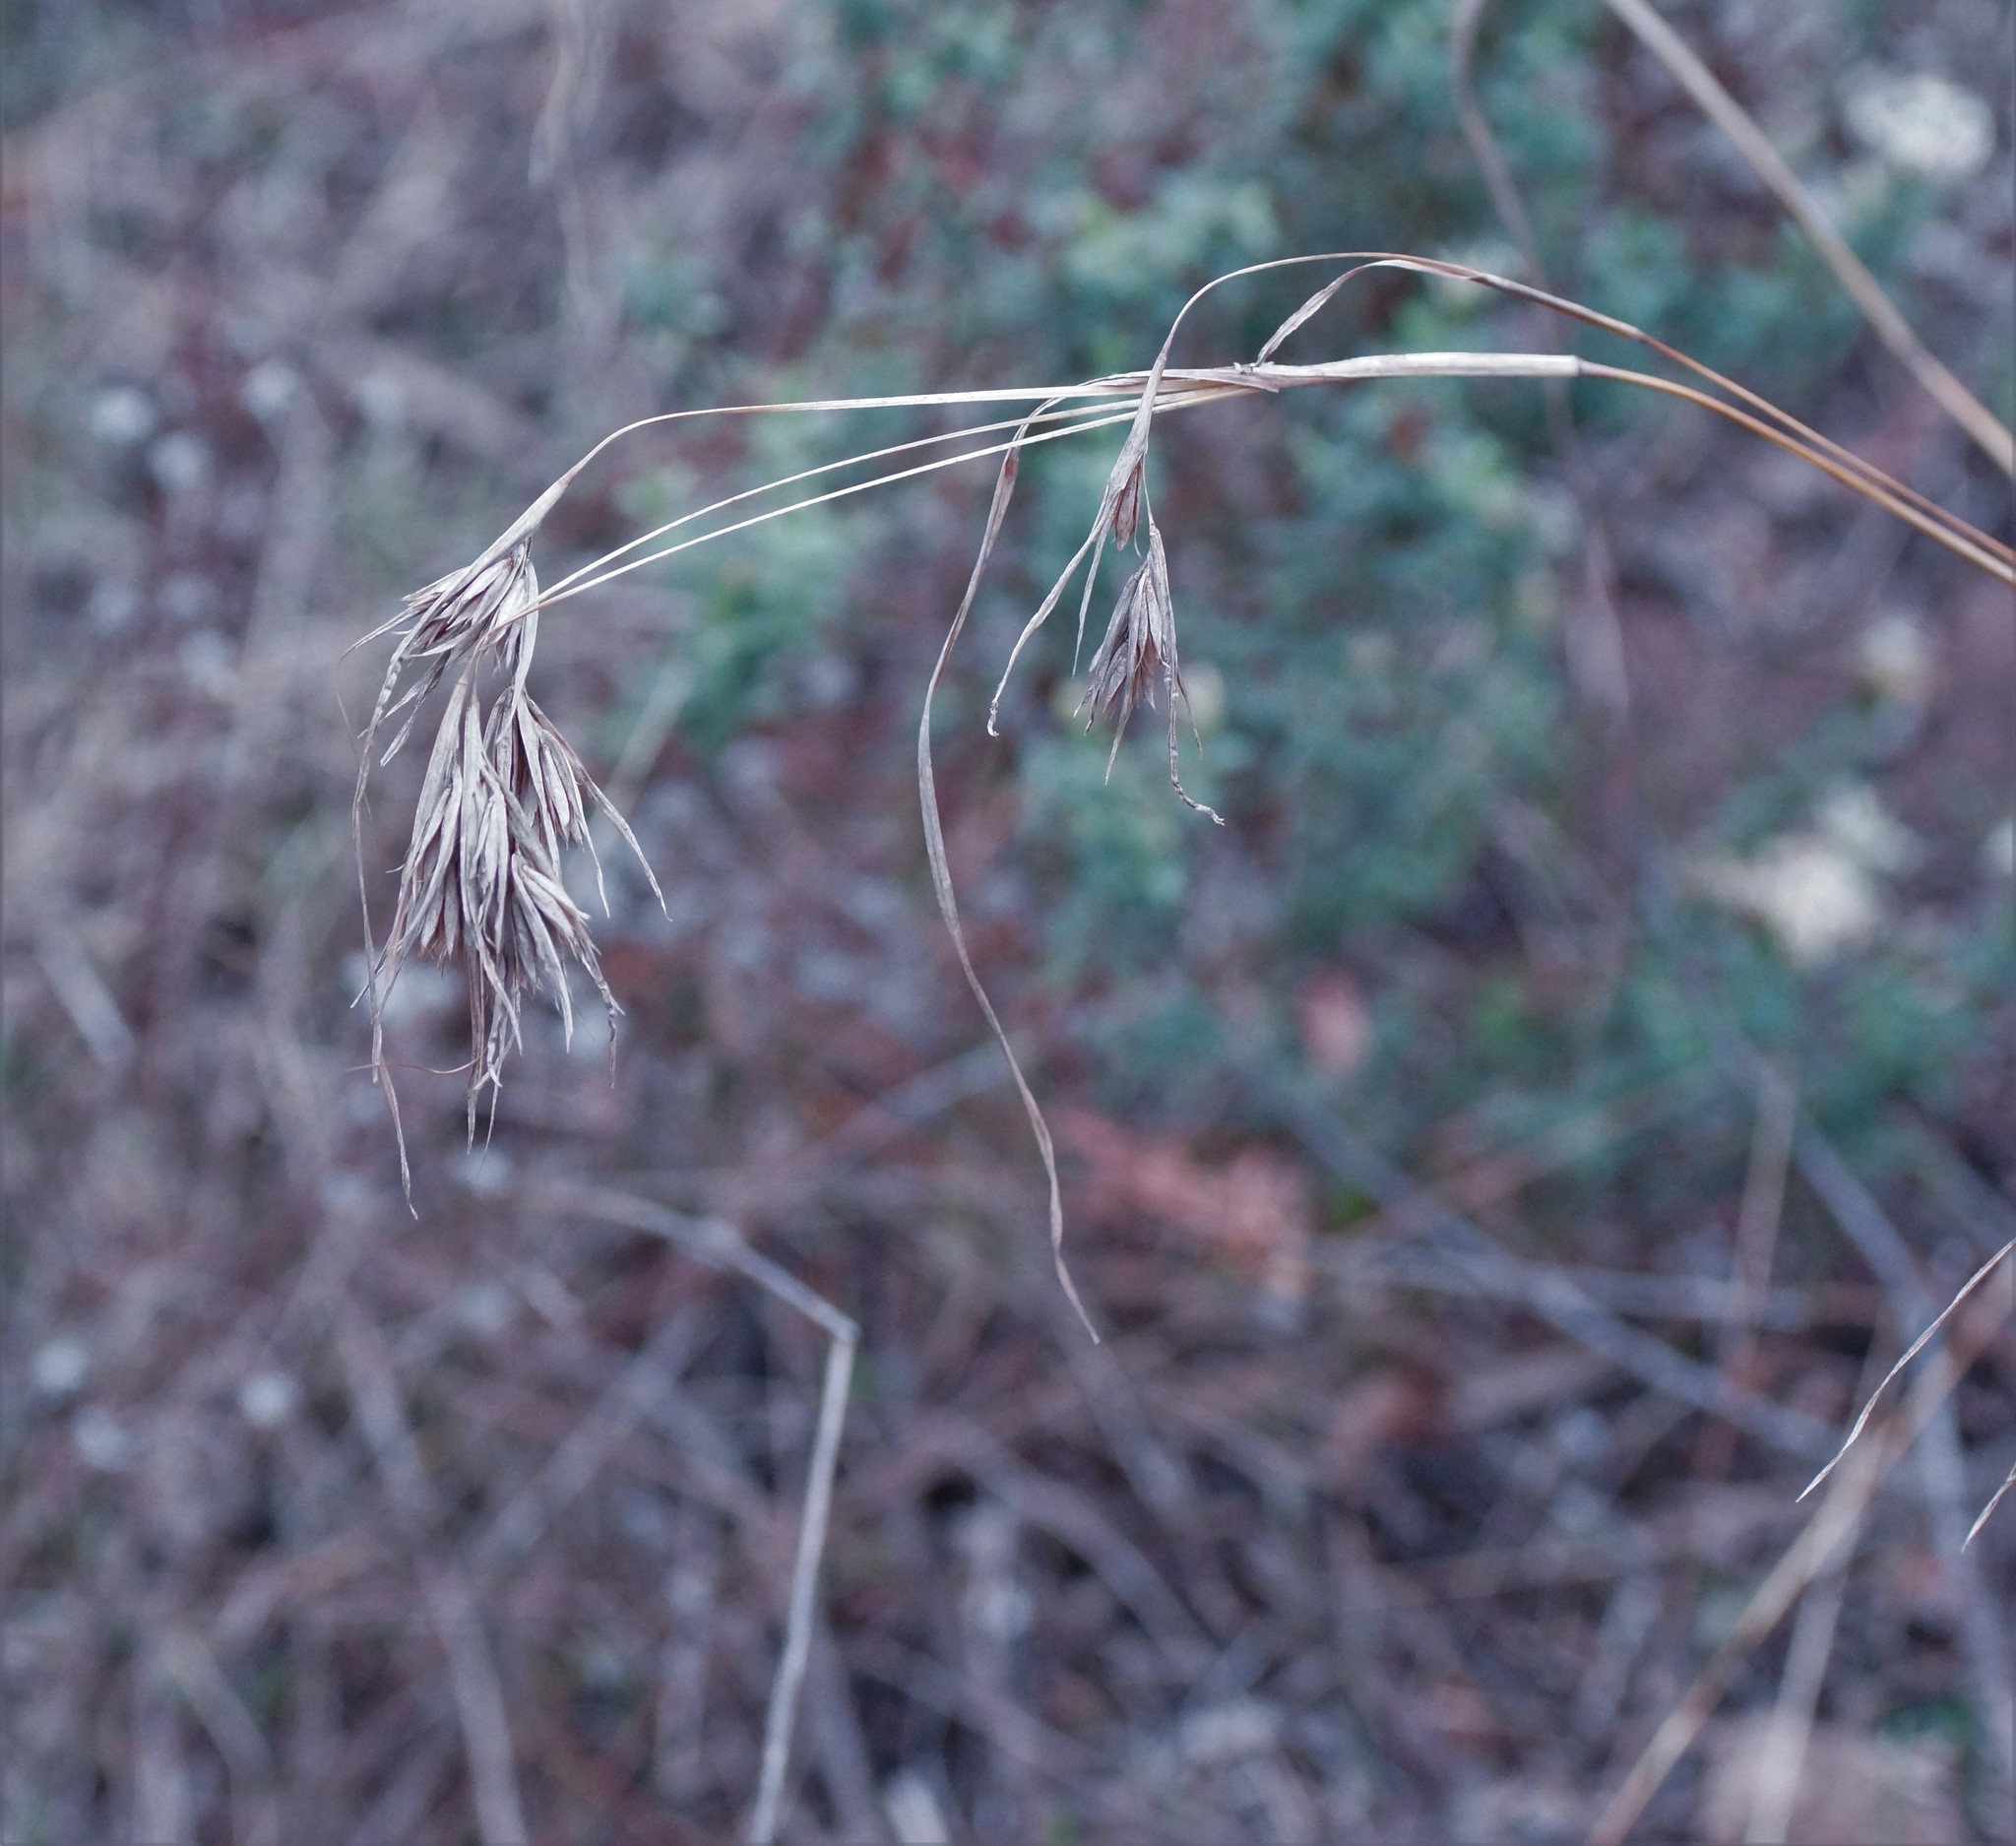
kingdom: Plantae
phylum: Tracheophyta
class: Liliopsida
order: Poales
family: Poaceae
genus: Themeda
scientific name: Themeda triandra
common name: Kangaroo grass
